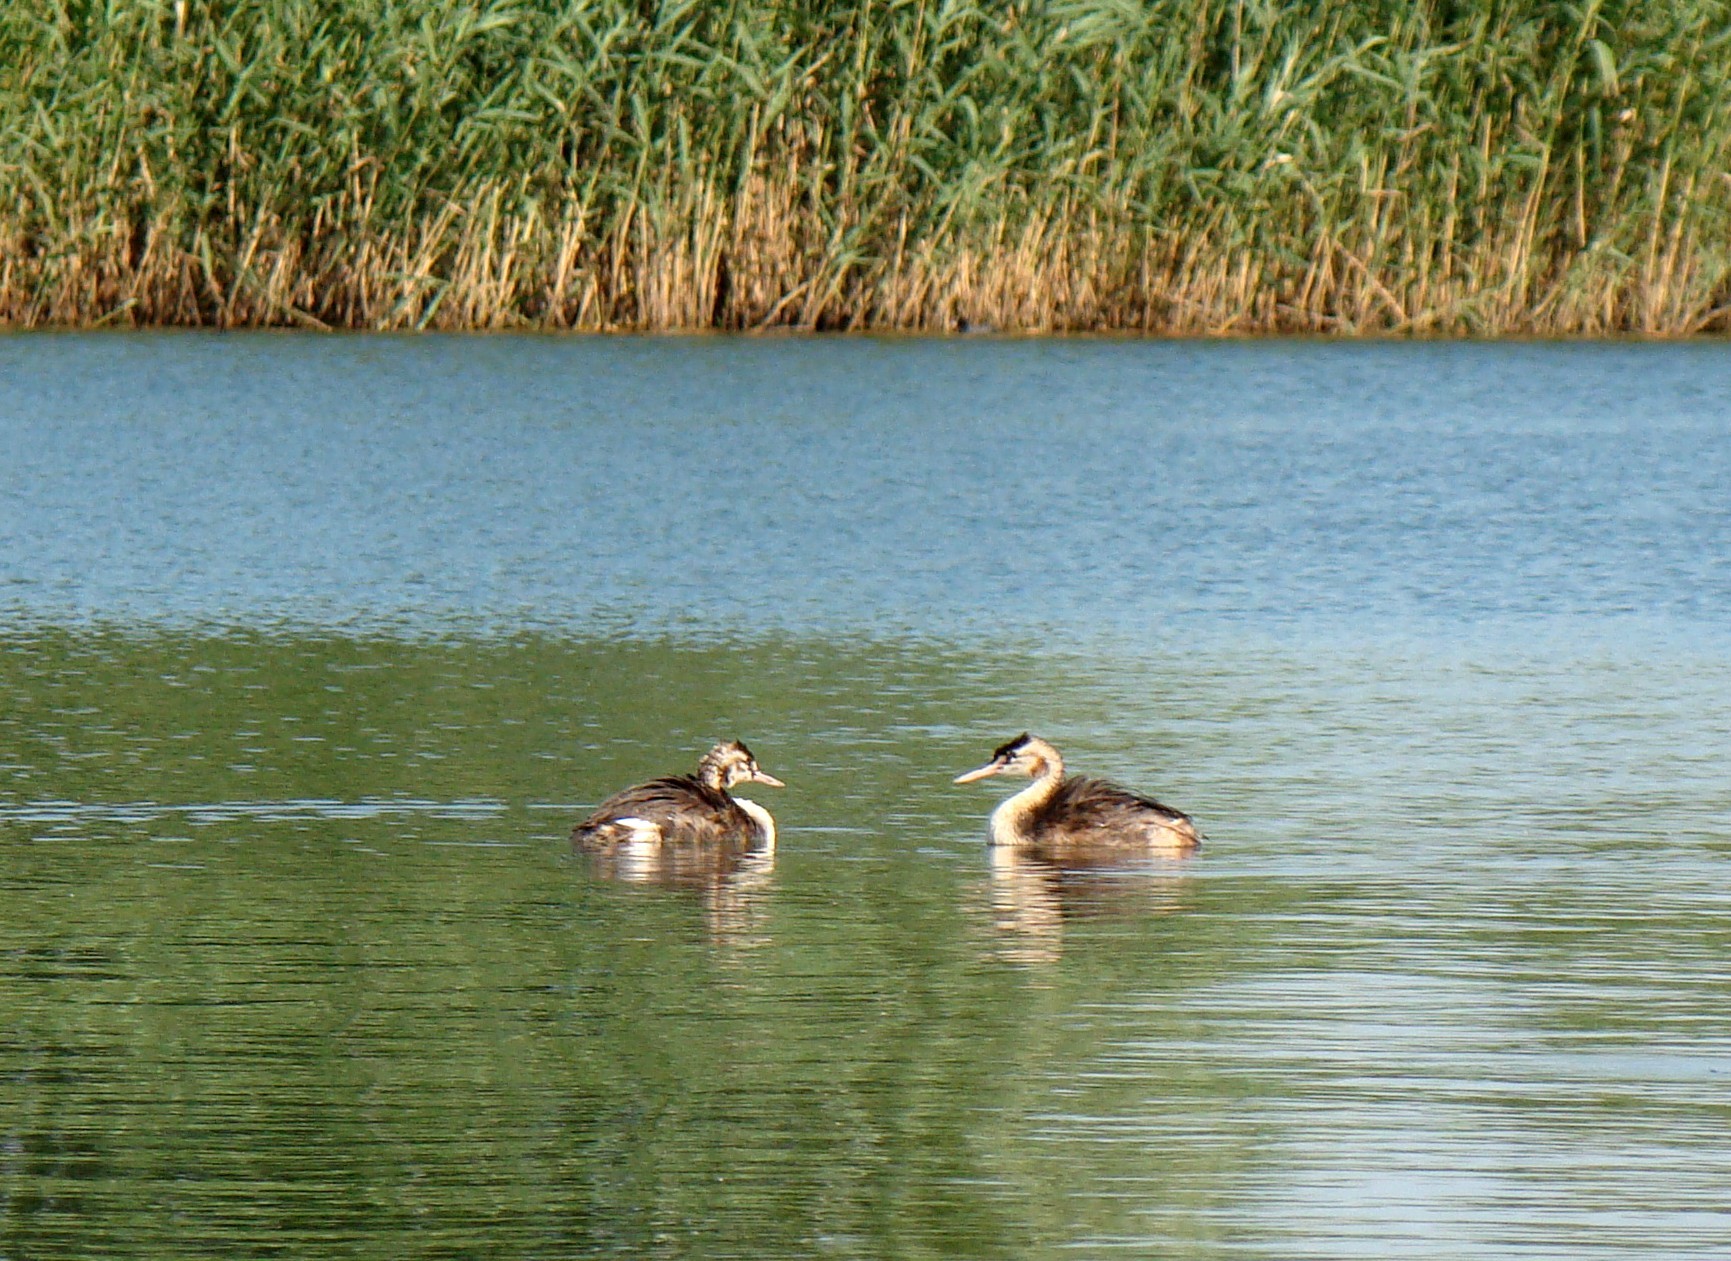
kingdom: Animalia
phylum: Chordata
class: Aves
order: Podicipediformes
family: Podicipedidae
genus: Podiceps
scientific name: Podiceps cristatus
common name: Great crested grebe
